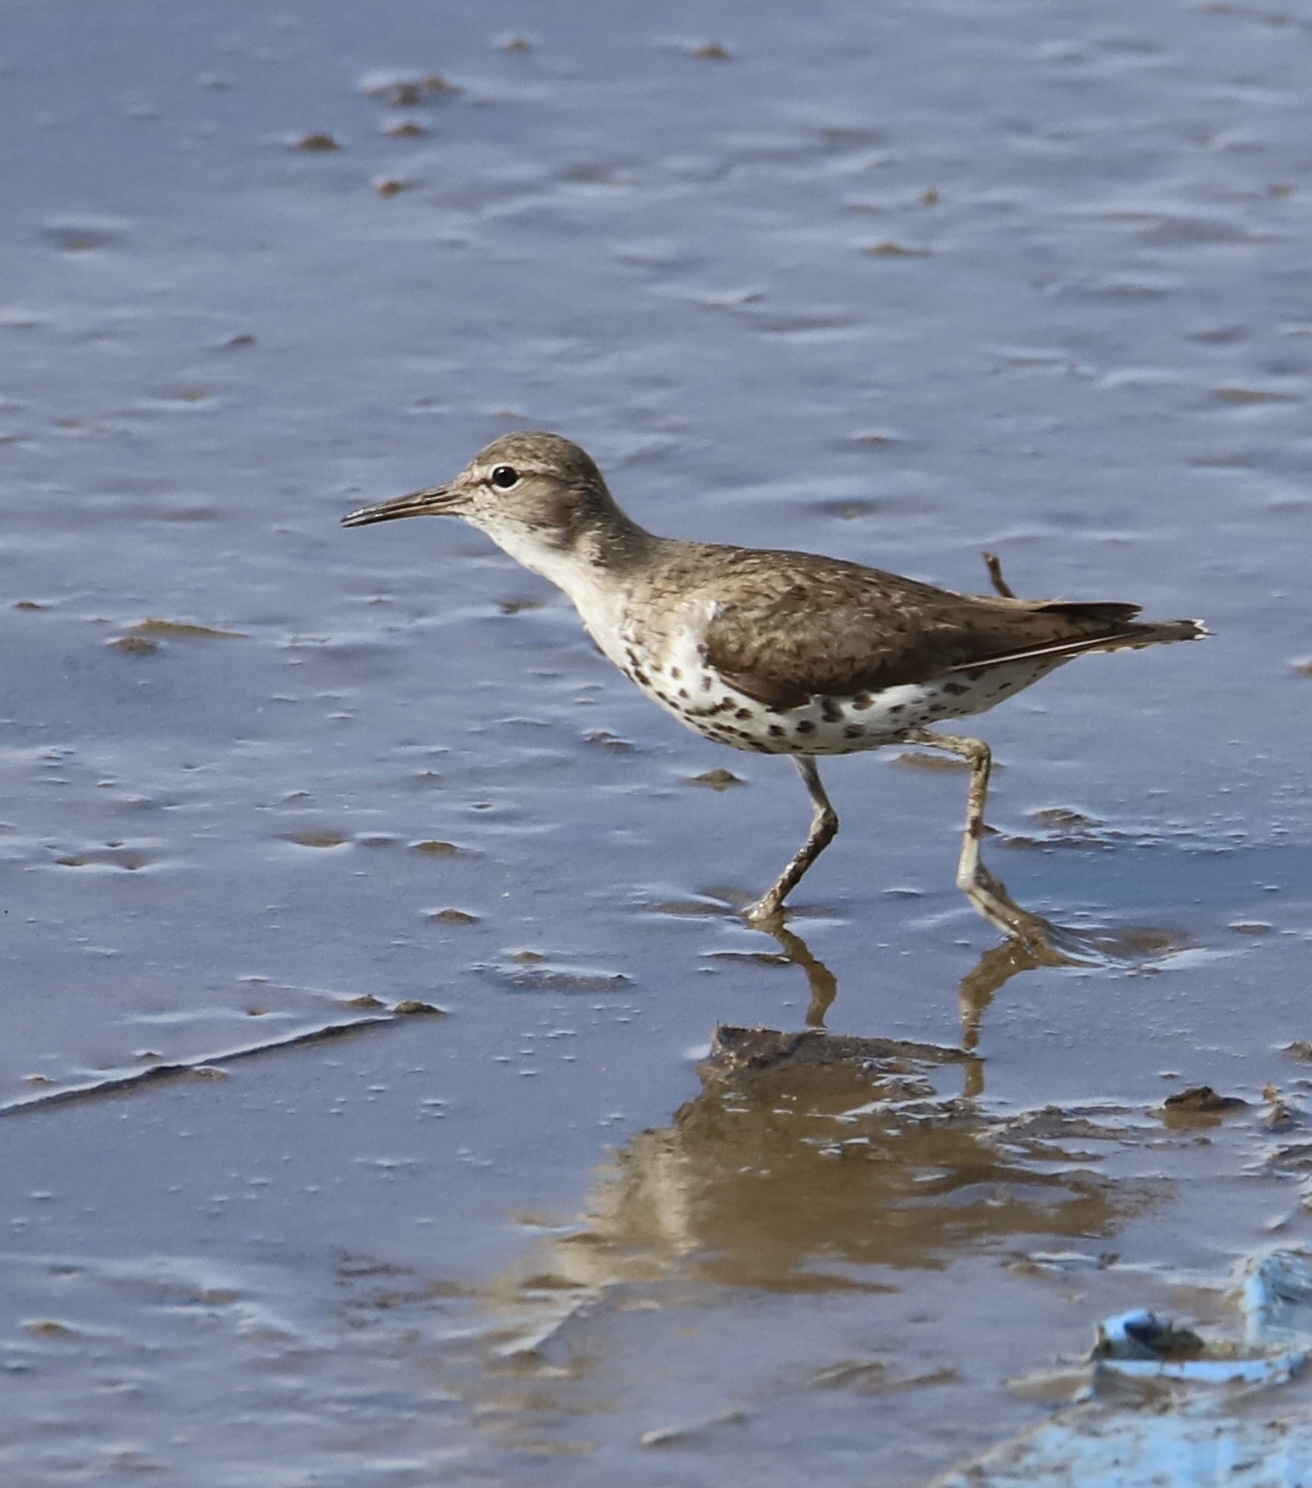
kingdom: Animalia
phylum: Chordata
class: Aves
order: Charadriiformes
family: Scolopacidae
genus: Actitis
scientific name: Actitis macularius
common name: Spotted sandpiper
